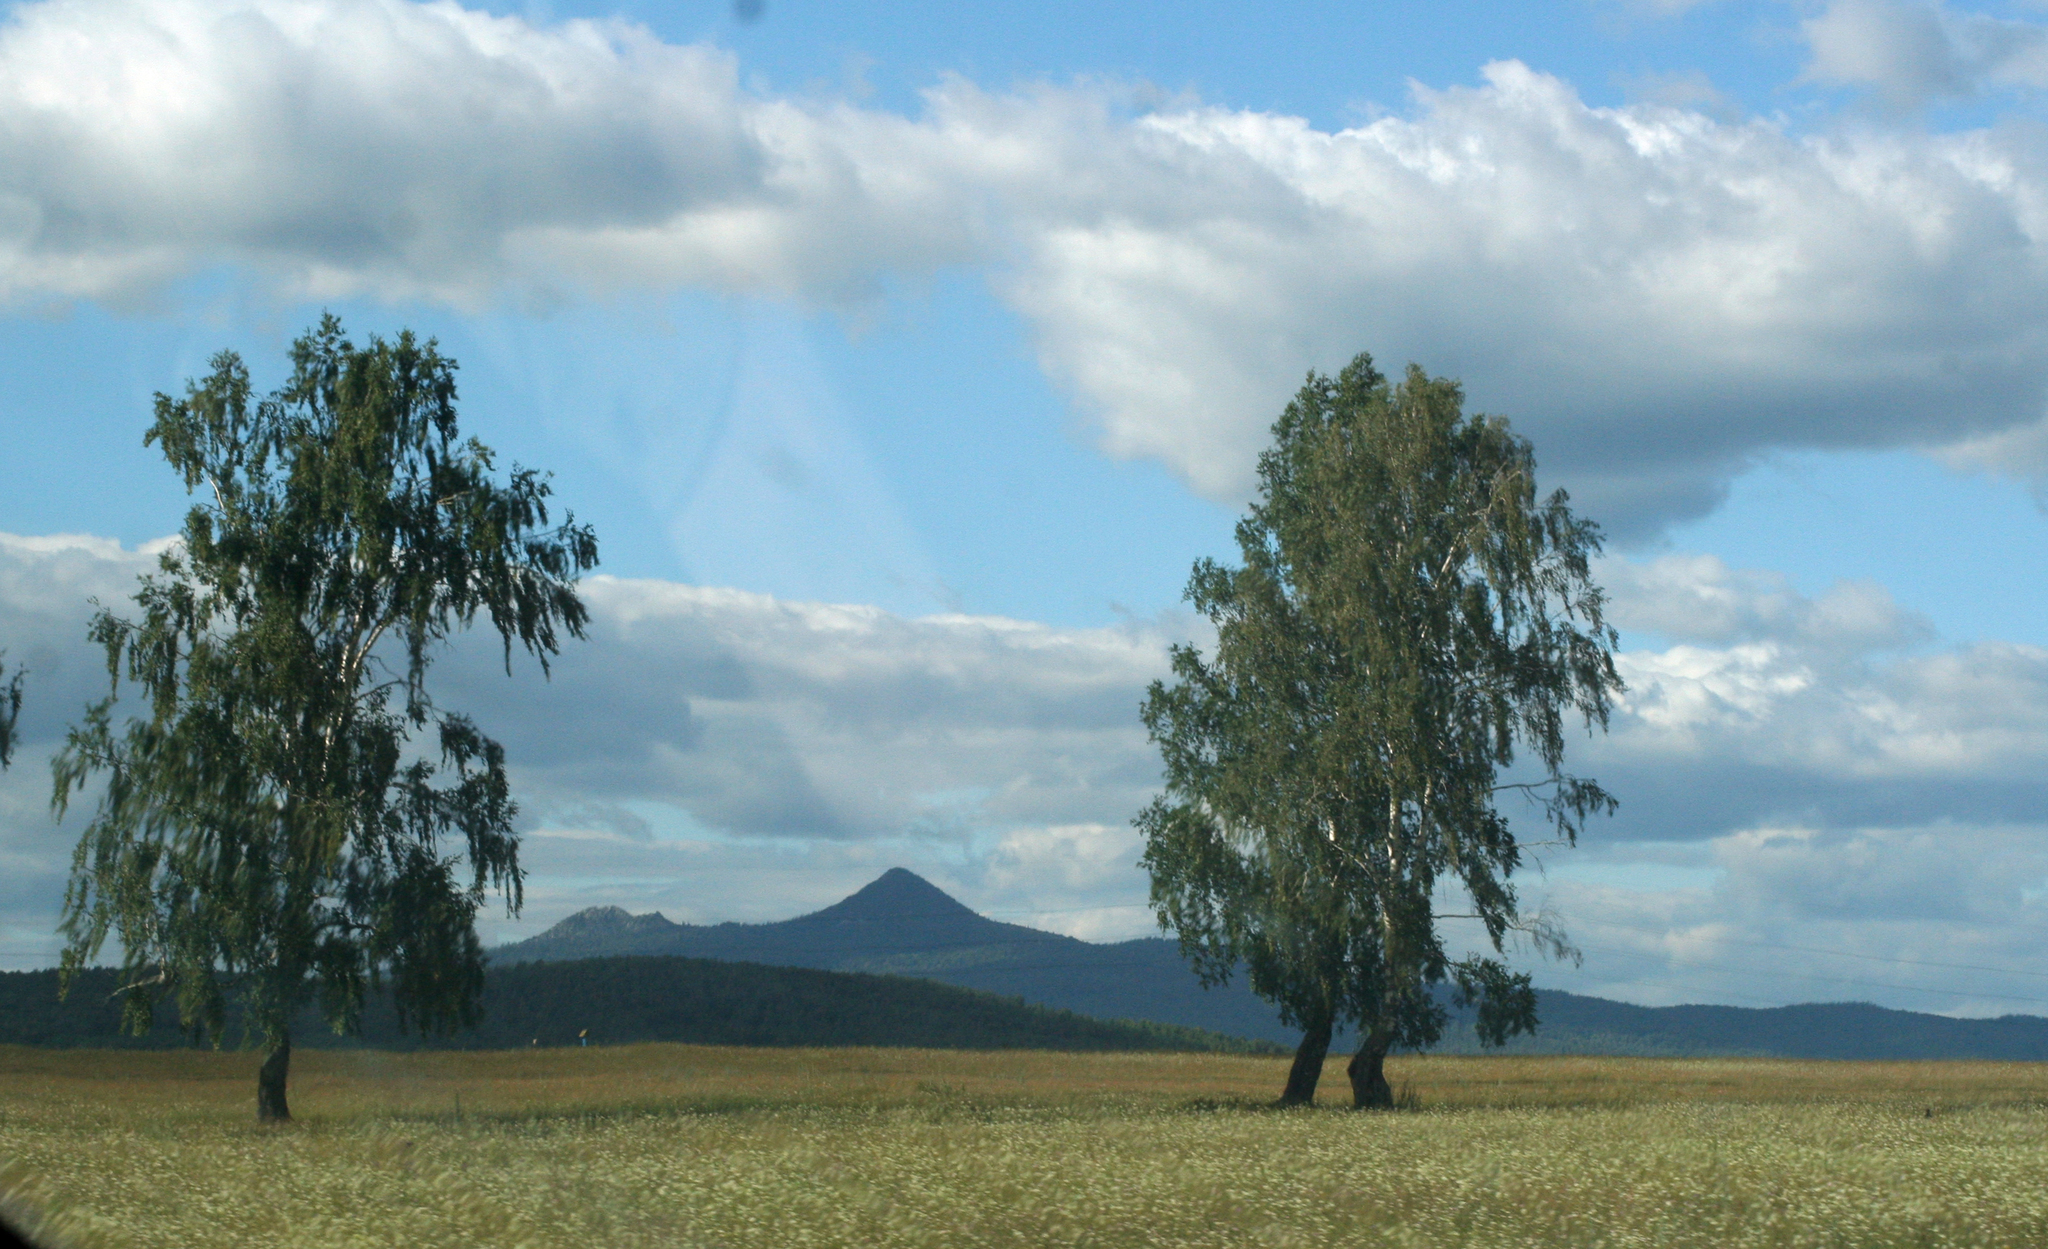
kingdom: Plantae
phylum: Tracheophyta
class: Magnoliopsida
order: Fagales
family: Betulaceae
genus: Betula
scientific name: Betula pendula
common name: Silver birch
